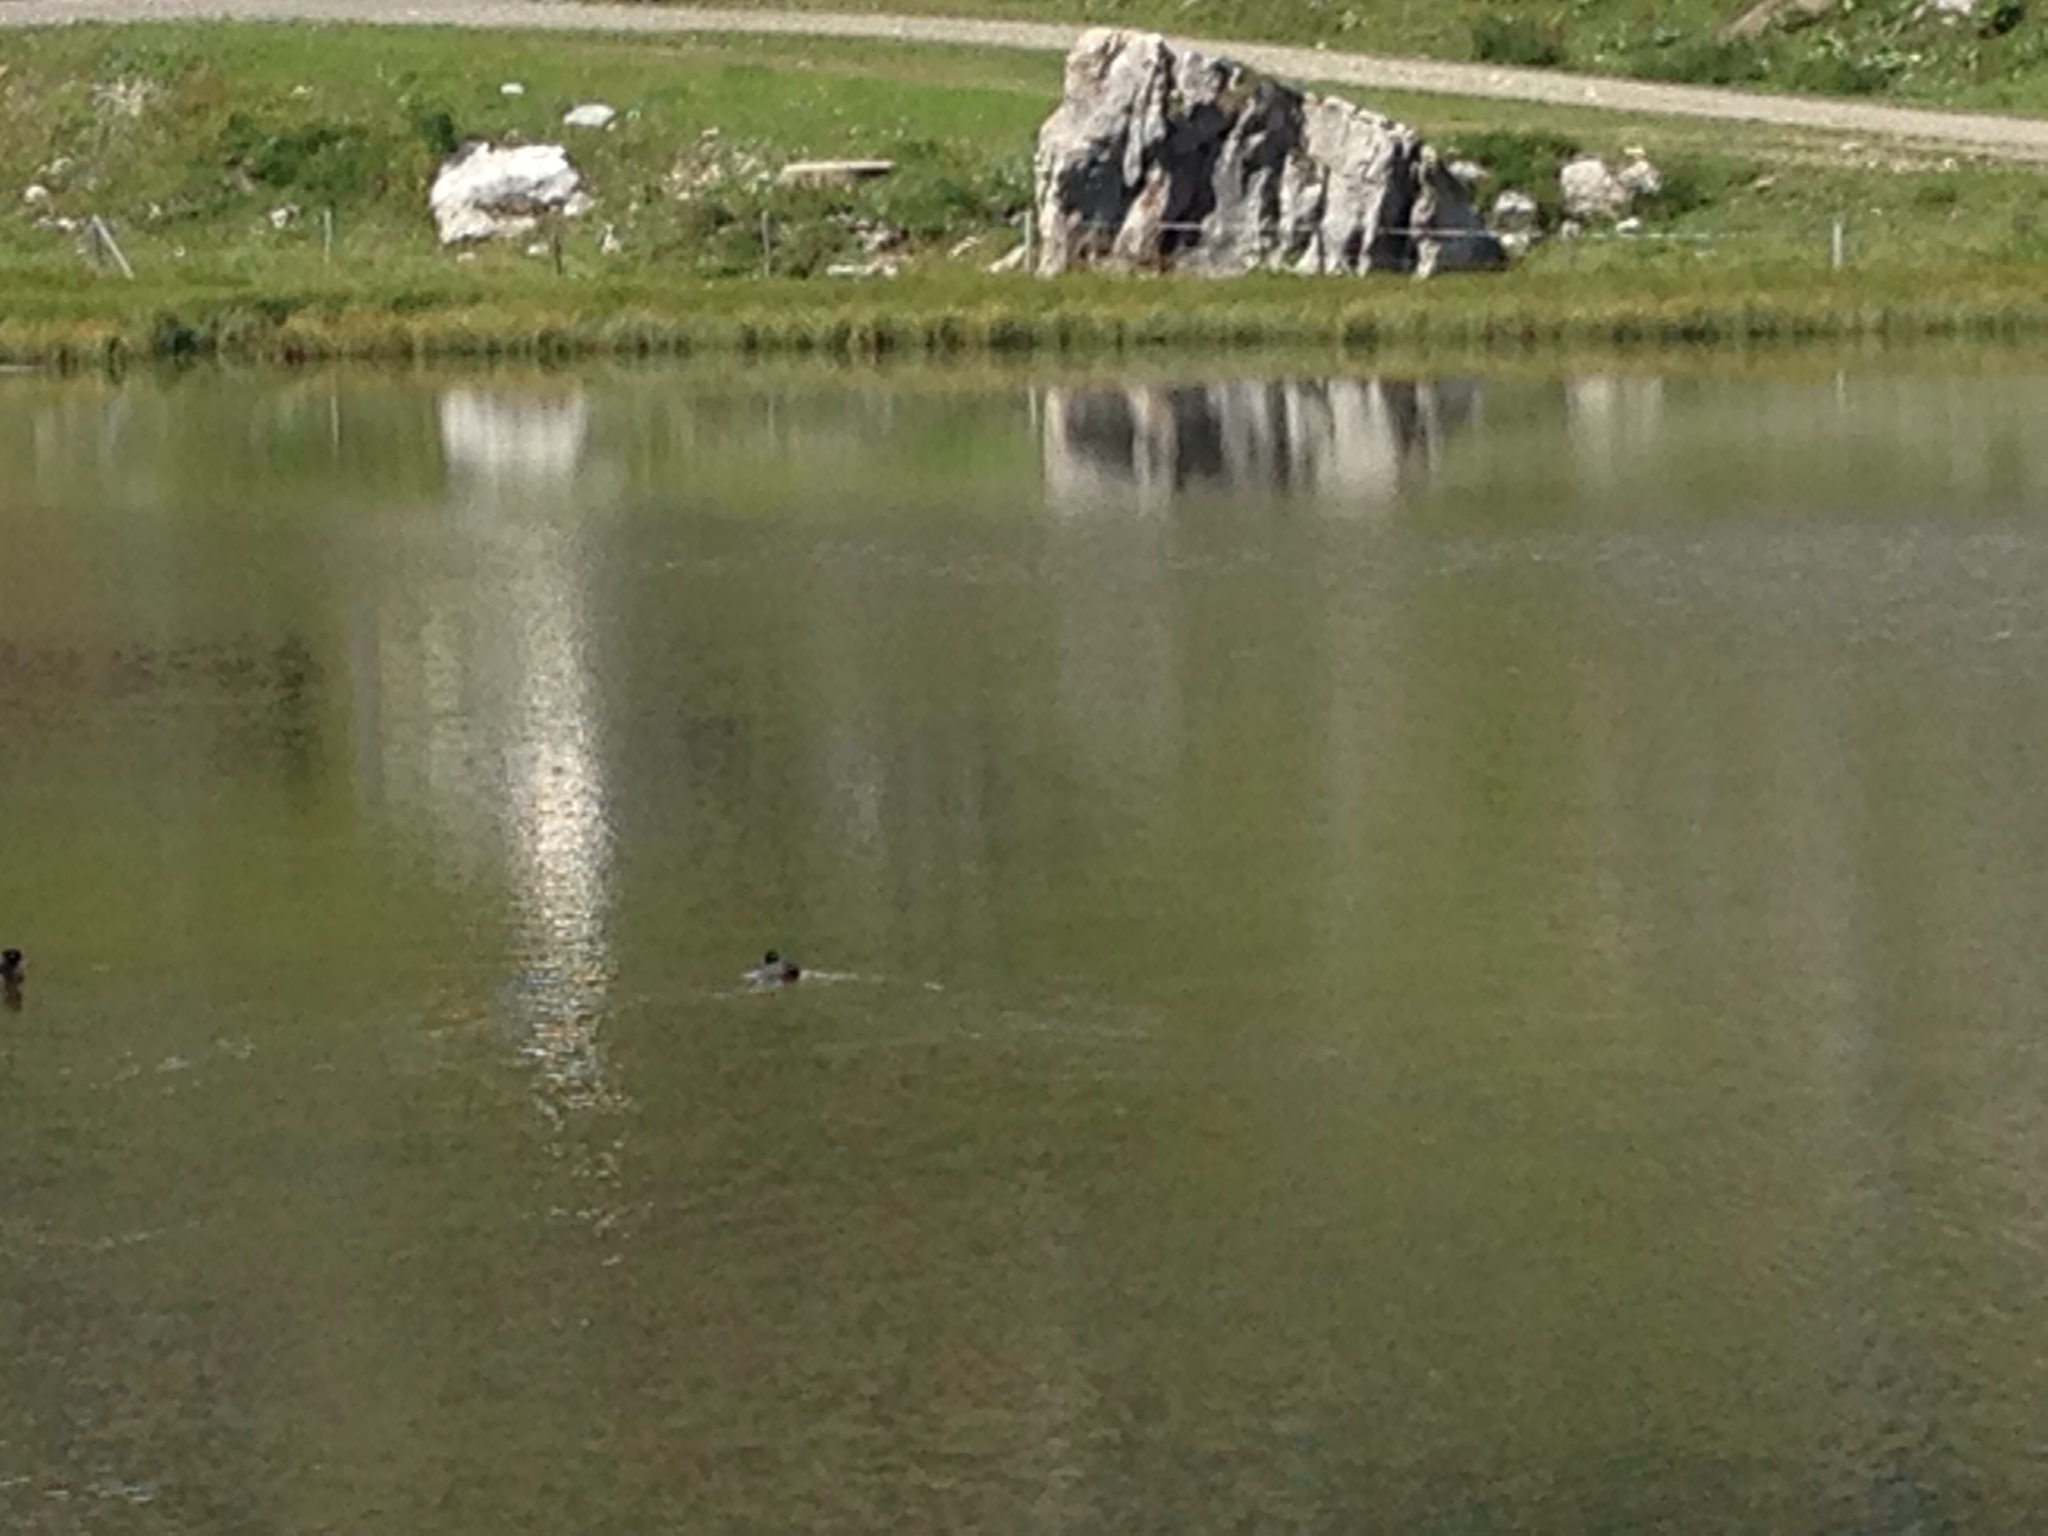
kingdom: Animalia
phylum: Chordata
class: Aves
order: Anseriformes
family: Anatidae
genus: Aythya
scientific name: Aythya fuligula
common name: Tufted duck
